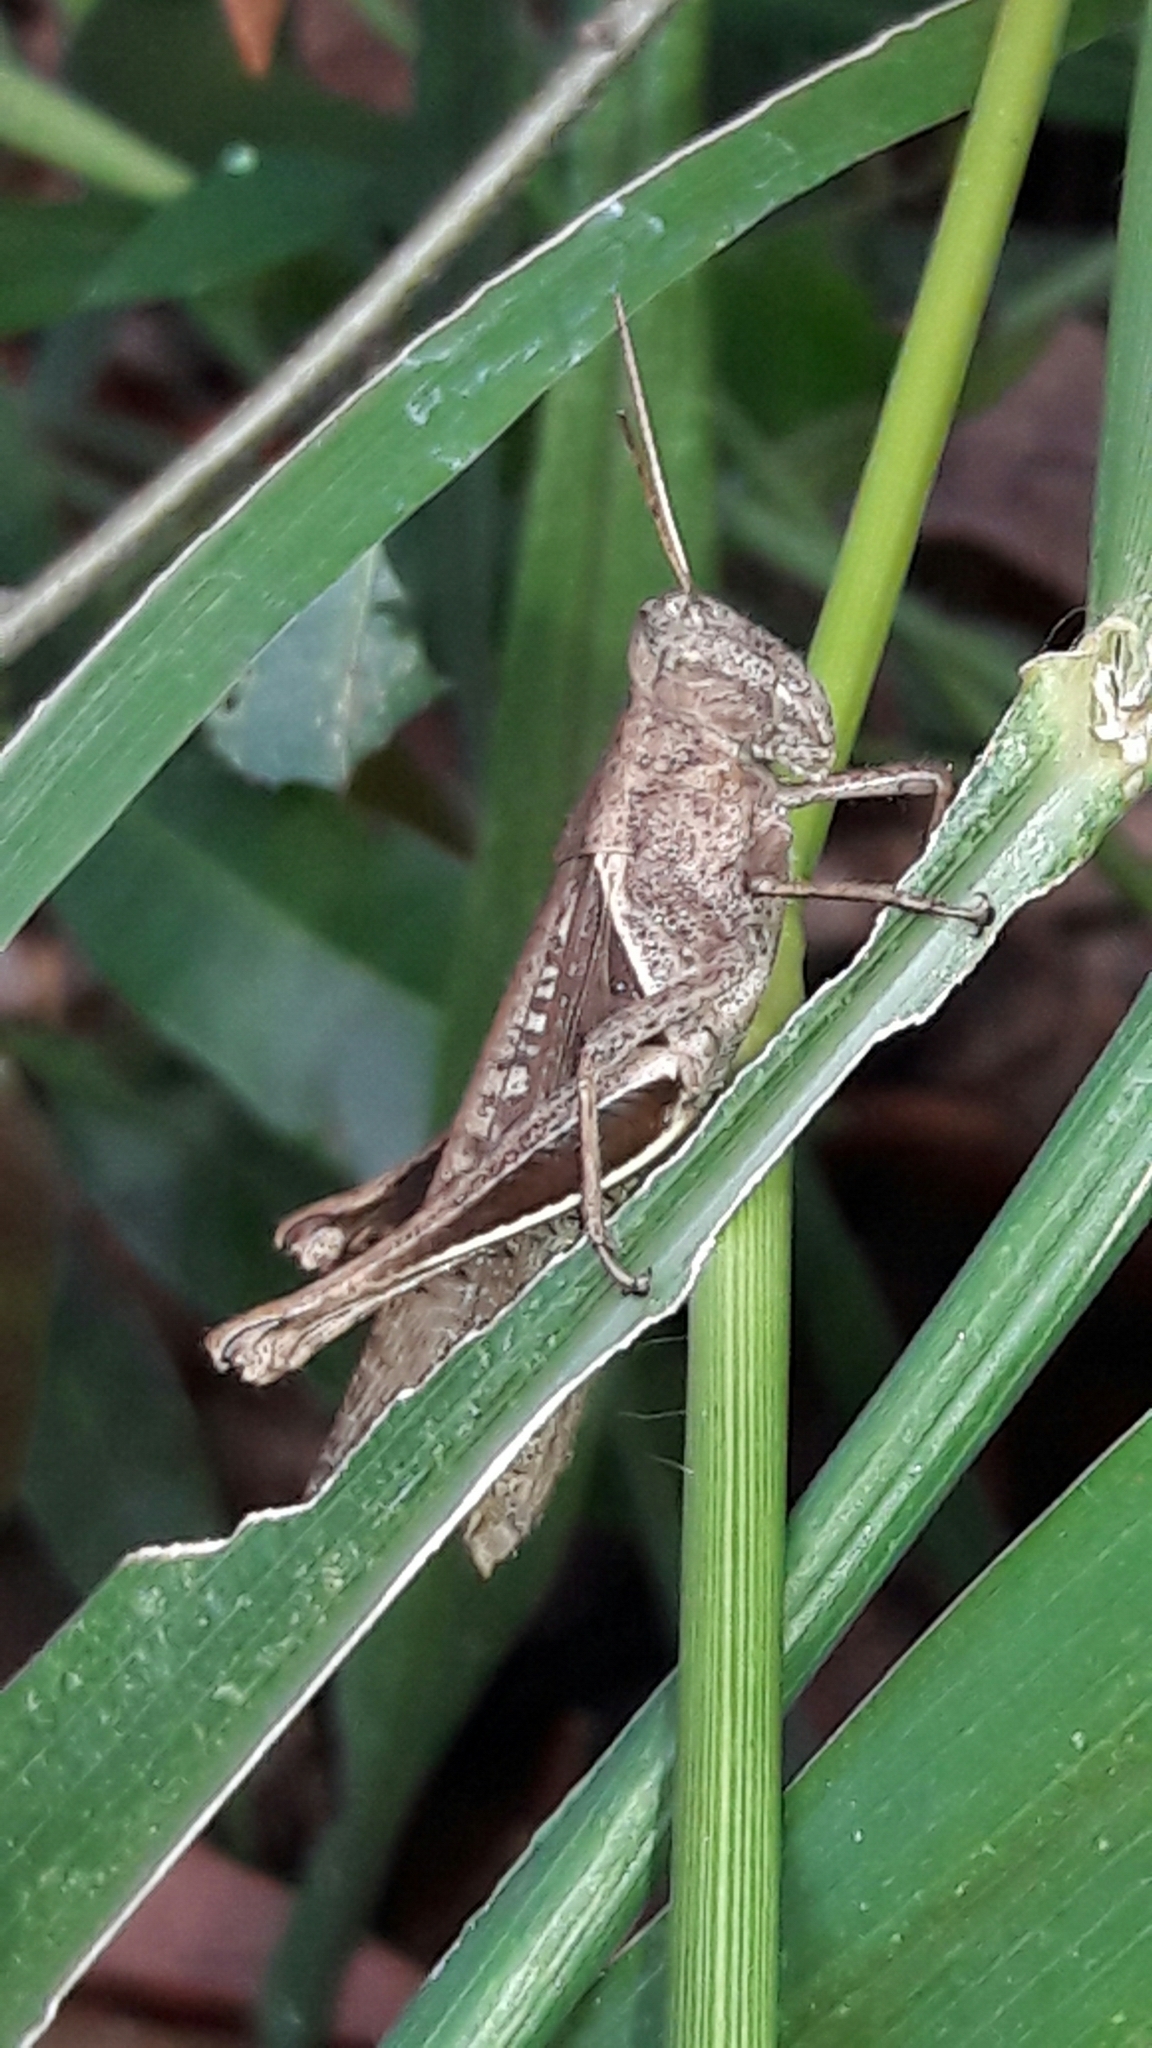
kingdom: Animalia
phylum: Arthropoda
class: Insecta
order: Orthoptera
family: Acrididae
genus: Abracris
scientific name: Abracris flavolineata
